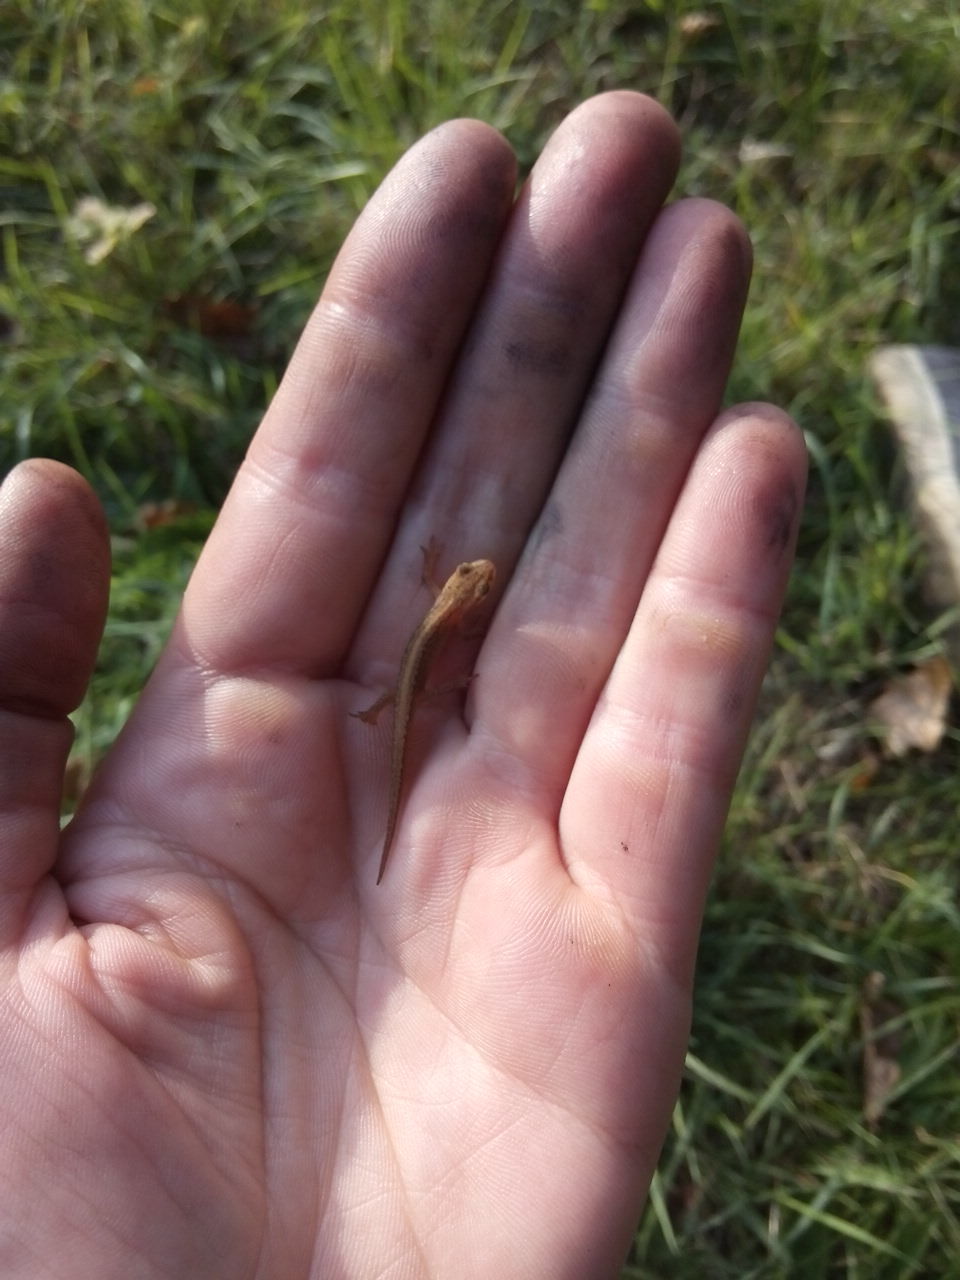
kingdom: Animalia
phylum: Chordata
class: Amphibia
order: Caudata
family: Salamandridae
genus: Lissotriton
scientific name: Lissotriton vulgaris
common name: Smooth newt
